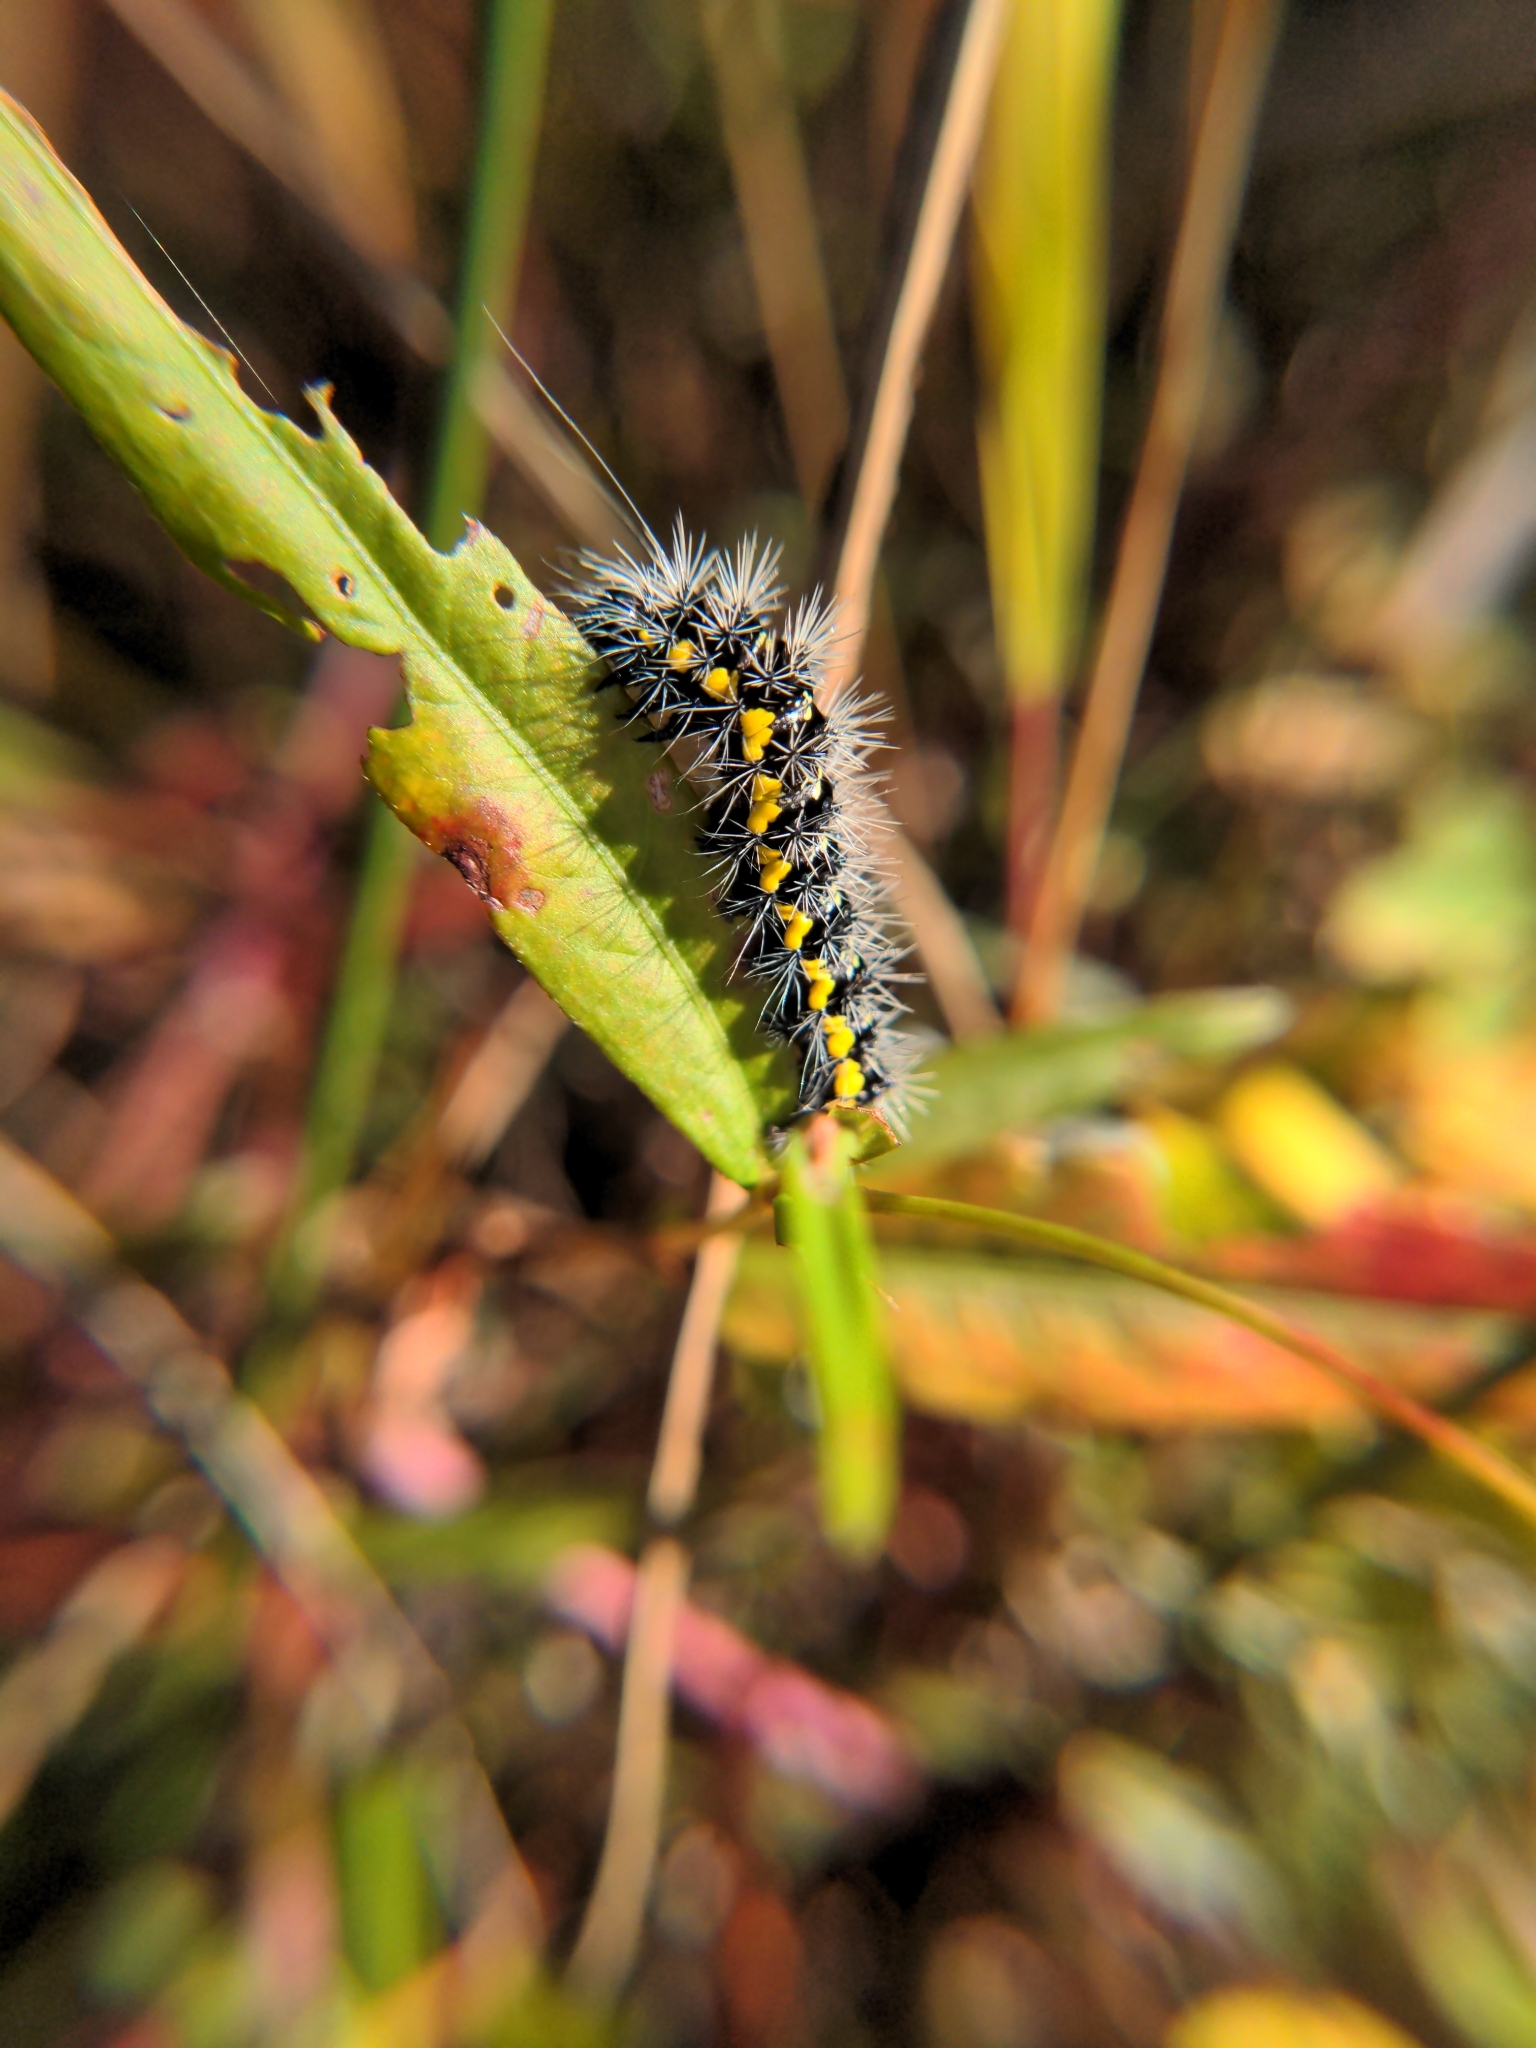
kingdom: Animalia
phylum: Arthropoda
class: Insecta
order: Lepidoptera
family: Noctuidae
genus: Acronicta
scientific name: Acronicta oblinita
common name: Smeared dagger
